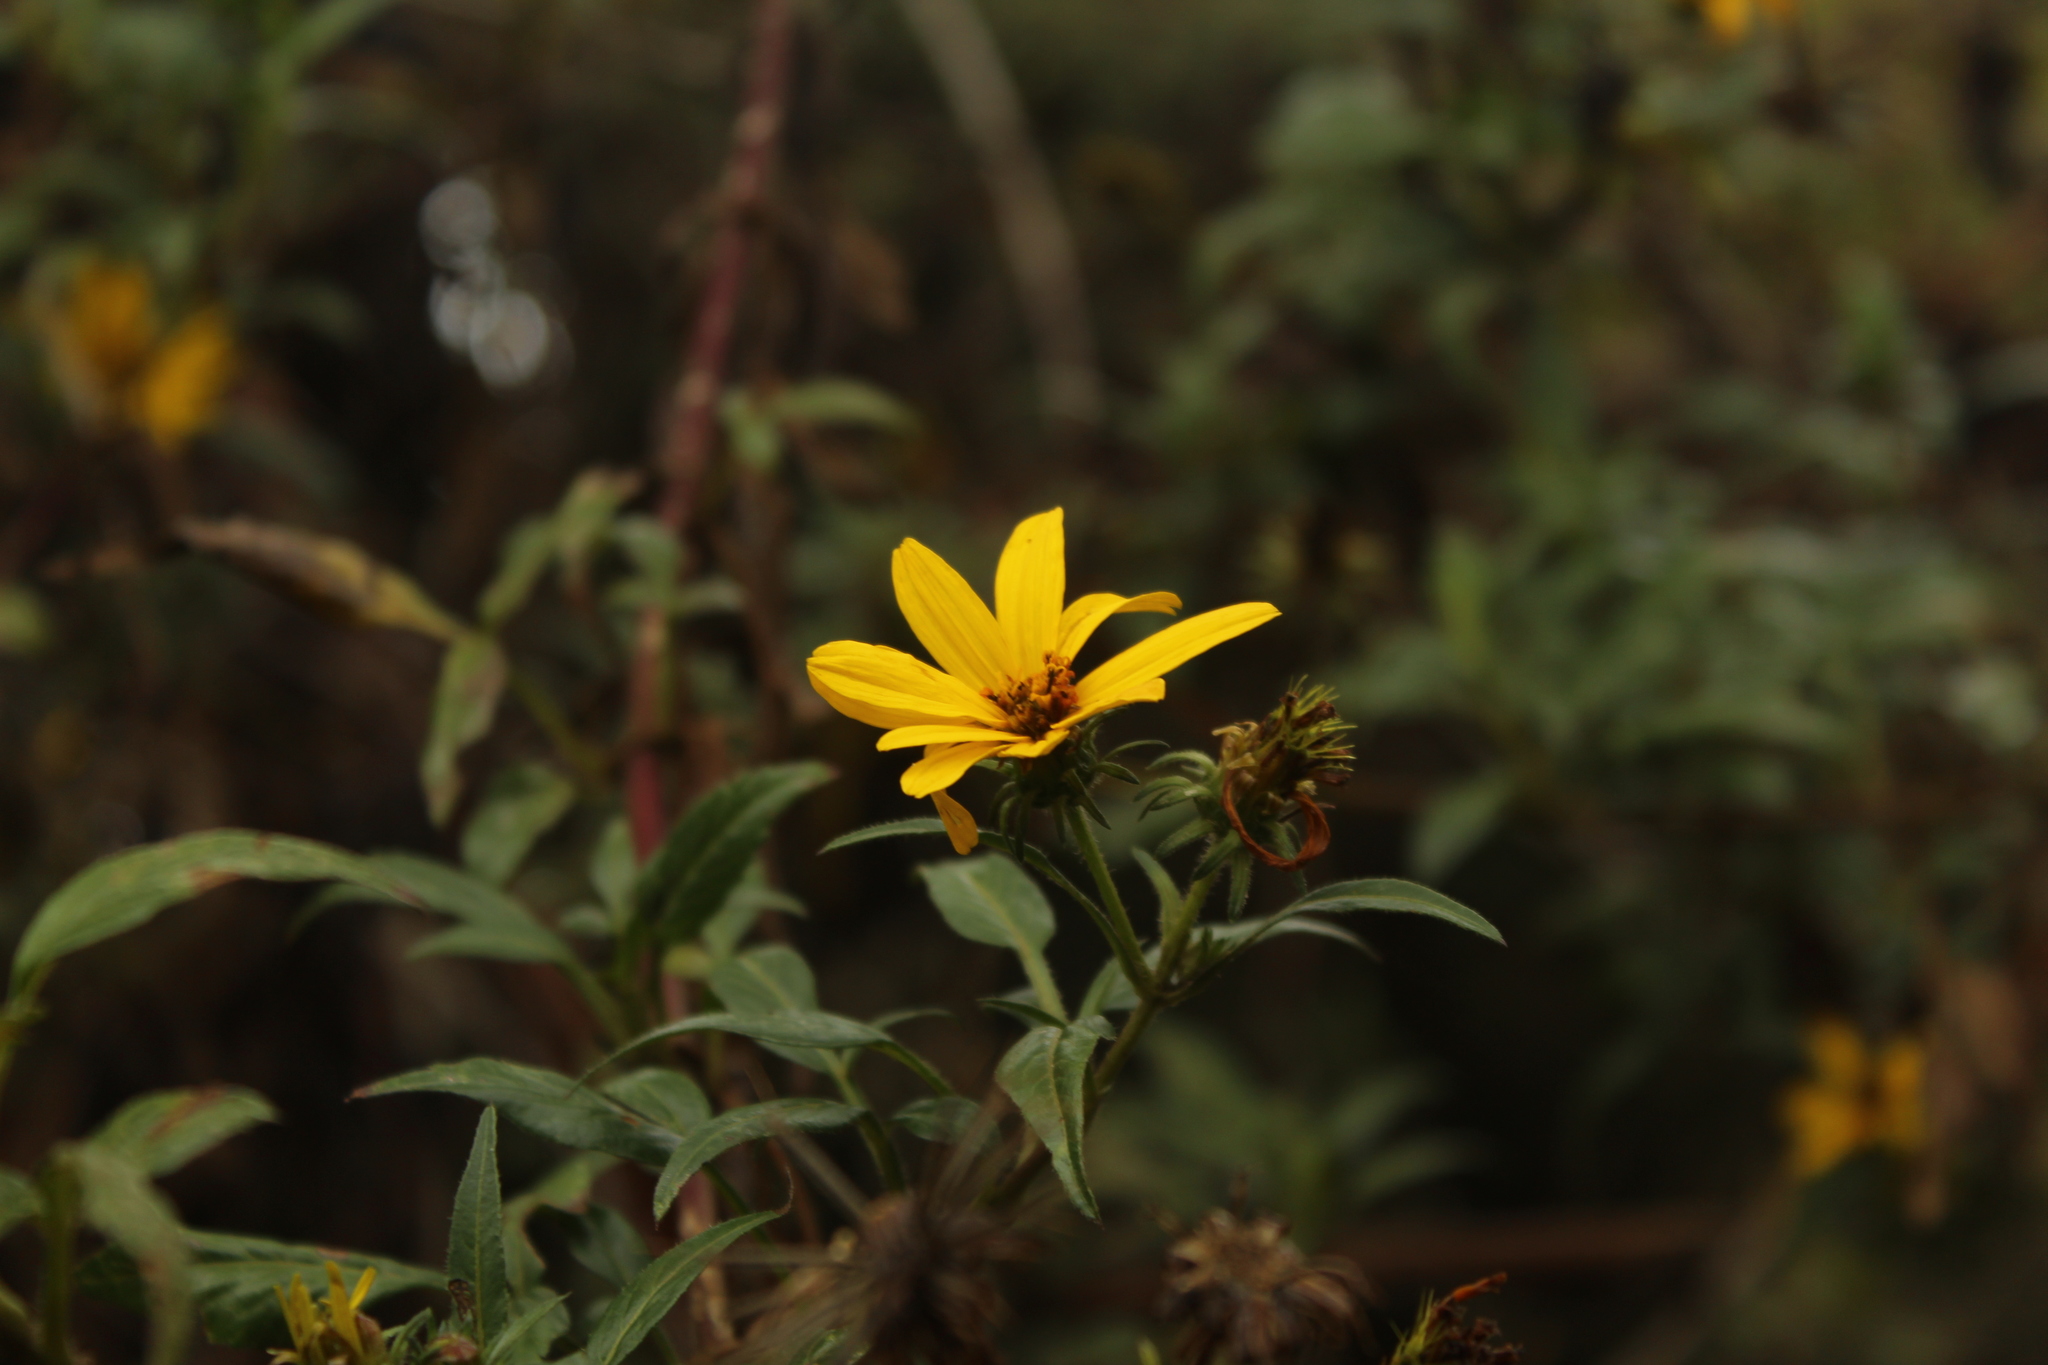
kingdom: Plantae
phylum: Tracheophyta
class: Magnoliopsida
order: Asterales
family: Asteraceae
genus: Bidens
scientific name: Bidens rubifolia
